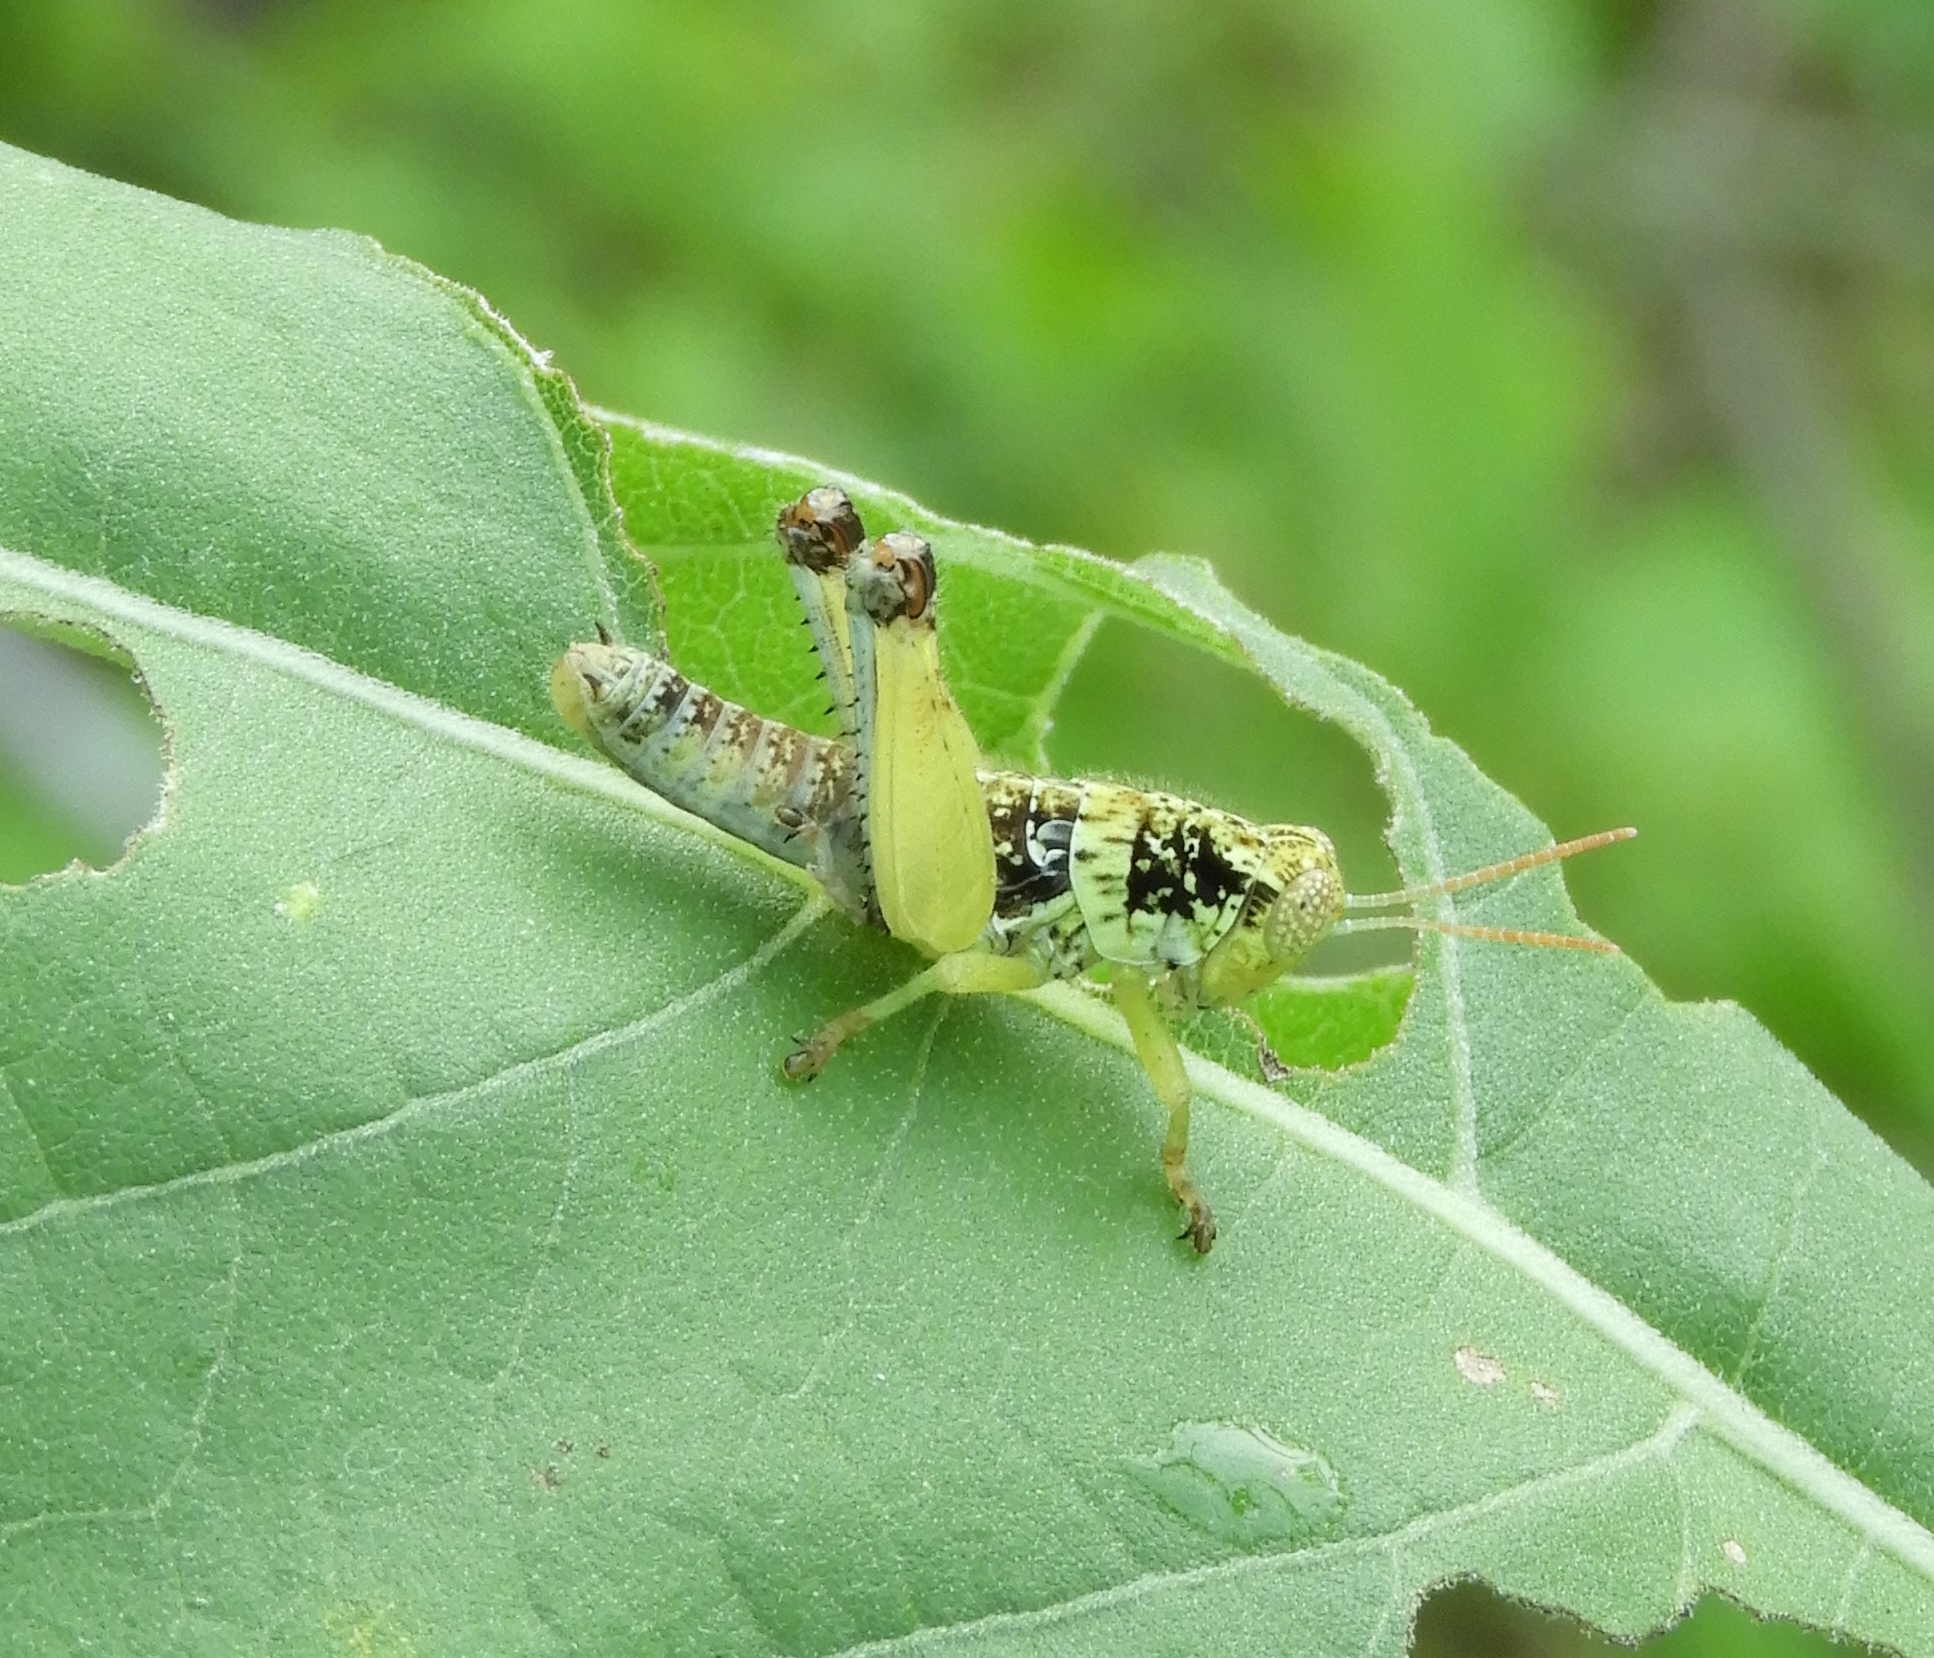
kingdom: Animalia
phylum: Arthropoda
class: Insecta
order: Orthoptera
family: Acrididae
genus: Sinaloa
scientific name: Sinaloa
